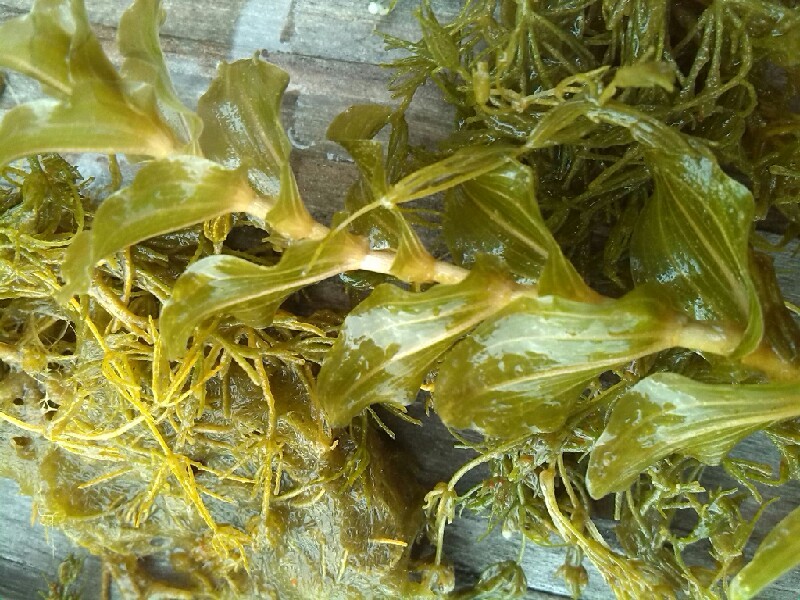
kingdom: Plantae
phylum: Tracheophyta
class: Liliopsida
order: Alismatales
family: Potamogetonaceae
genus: Potamogeton
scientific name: Potamogeton perfoliatus
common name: Perfoliate pondweed
